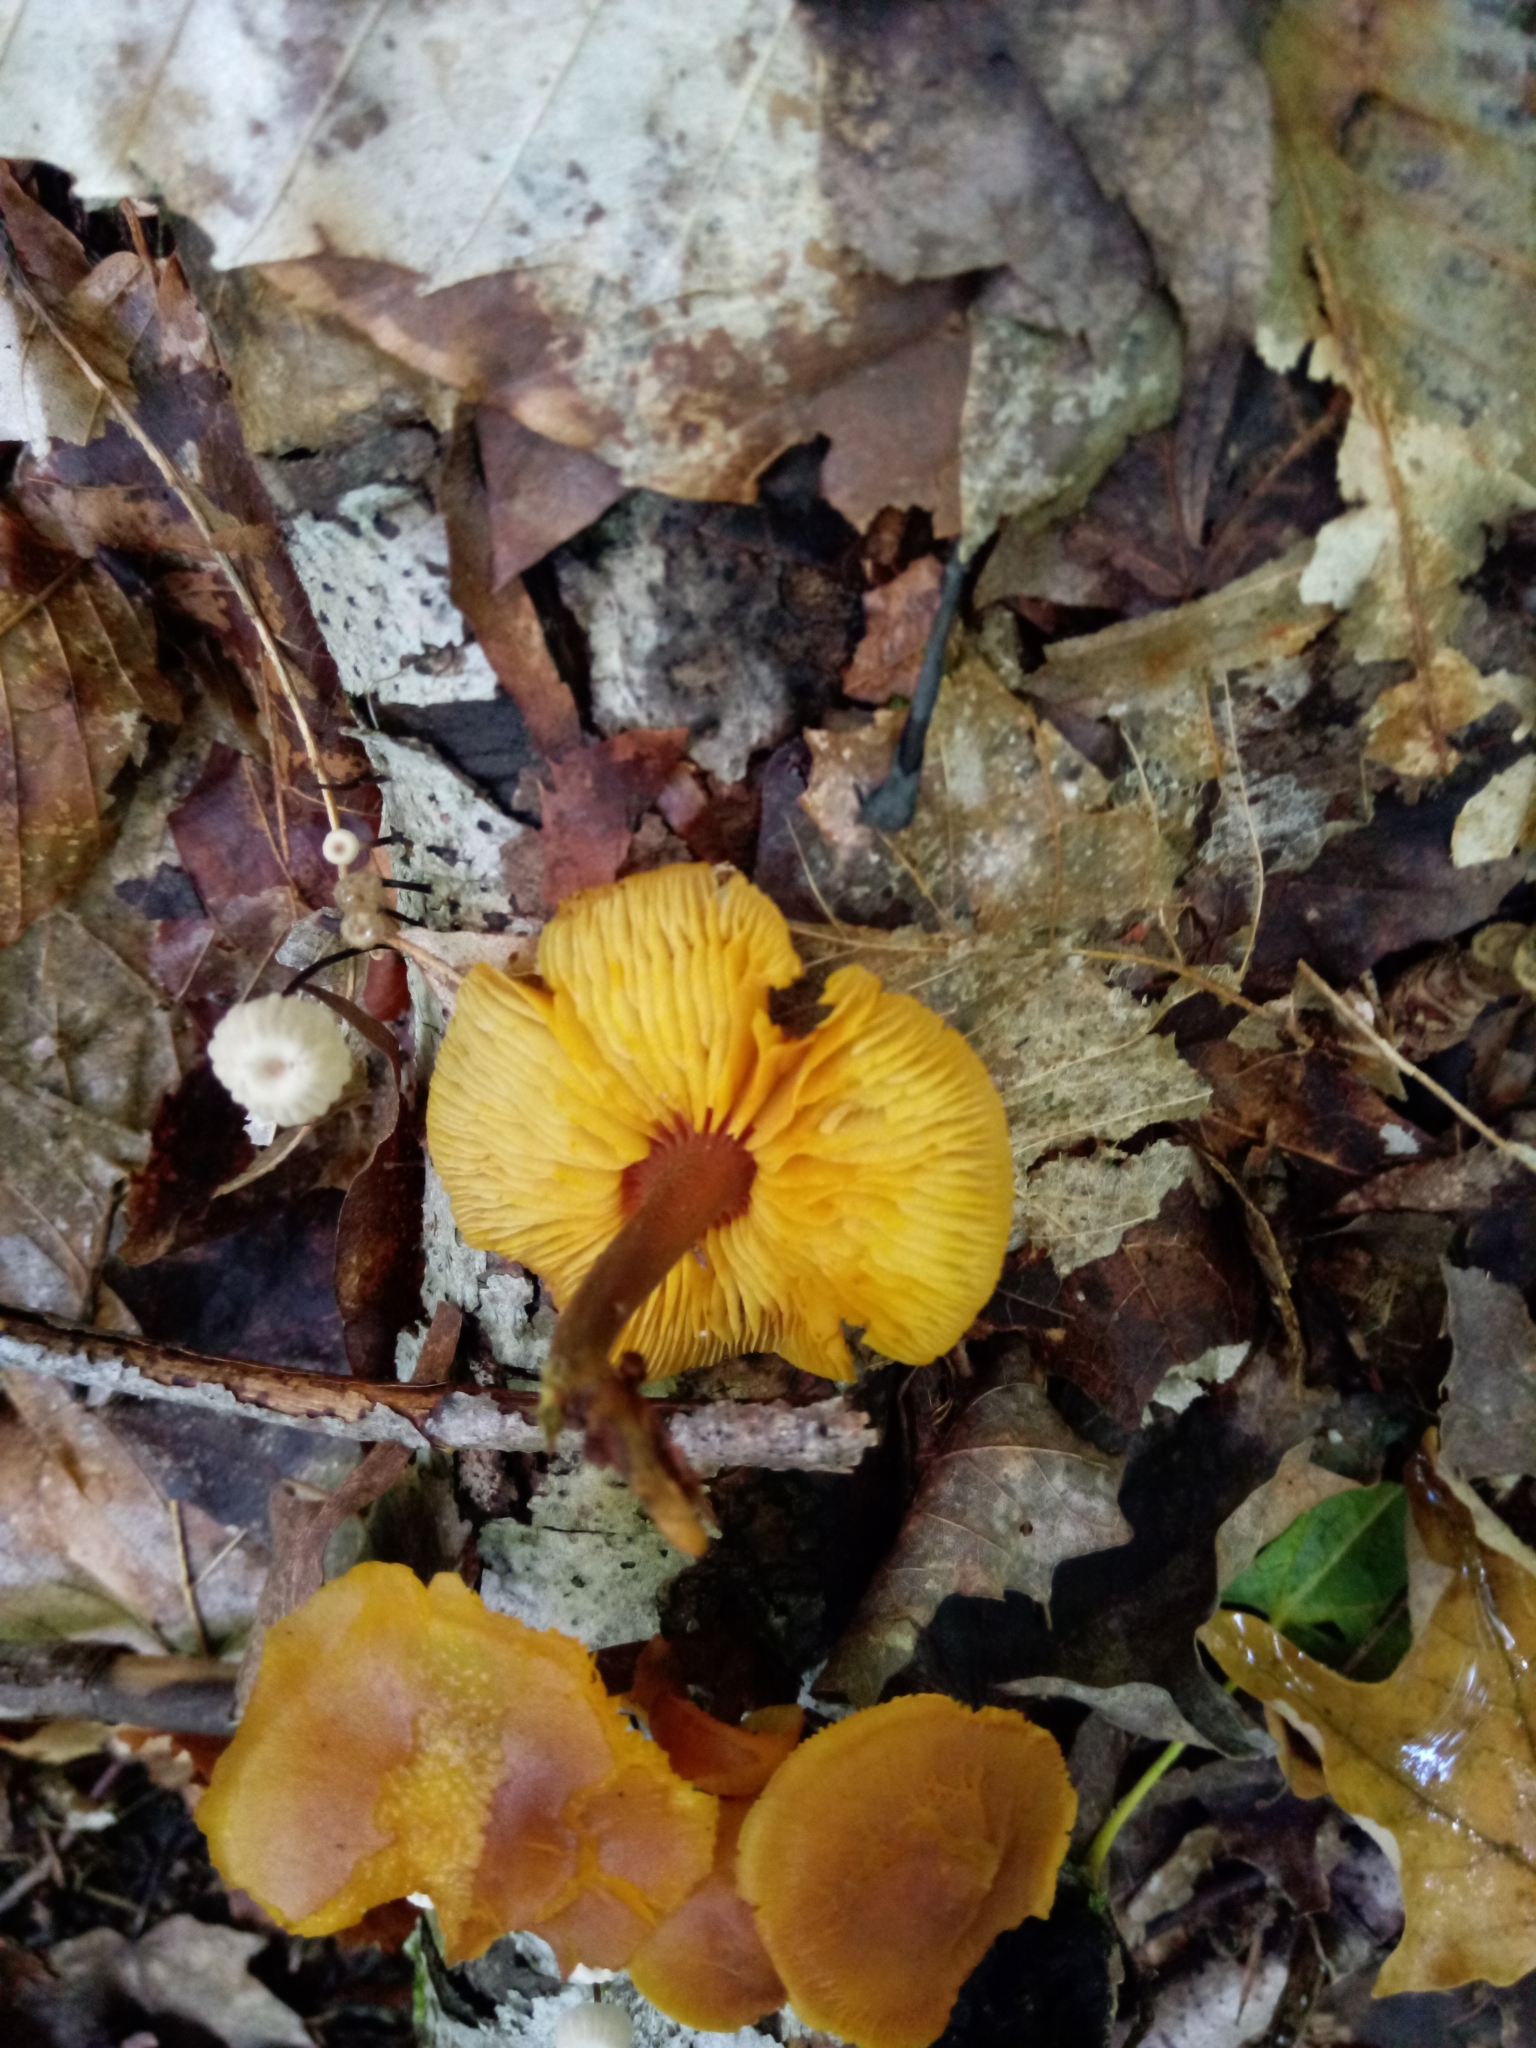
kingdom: Fungi
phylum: Basidiomycota
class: Agaricomycetes
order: Agaricales
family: Mycenaceae
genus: Xeromphalina
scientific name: Xeromphalina tenuipes
